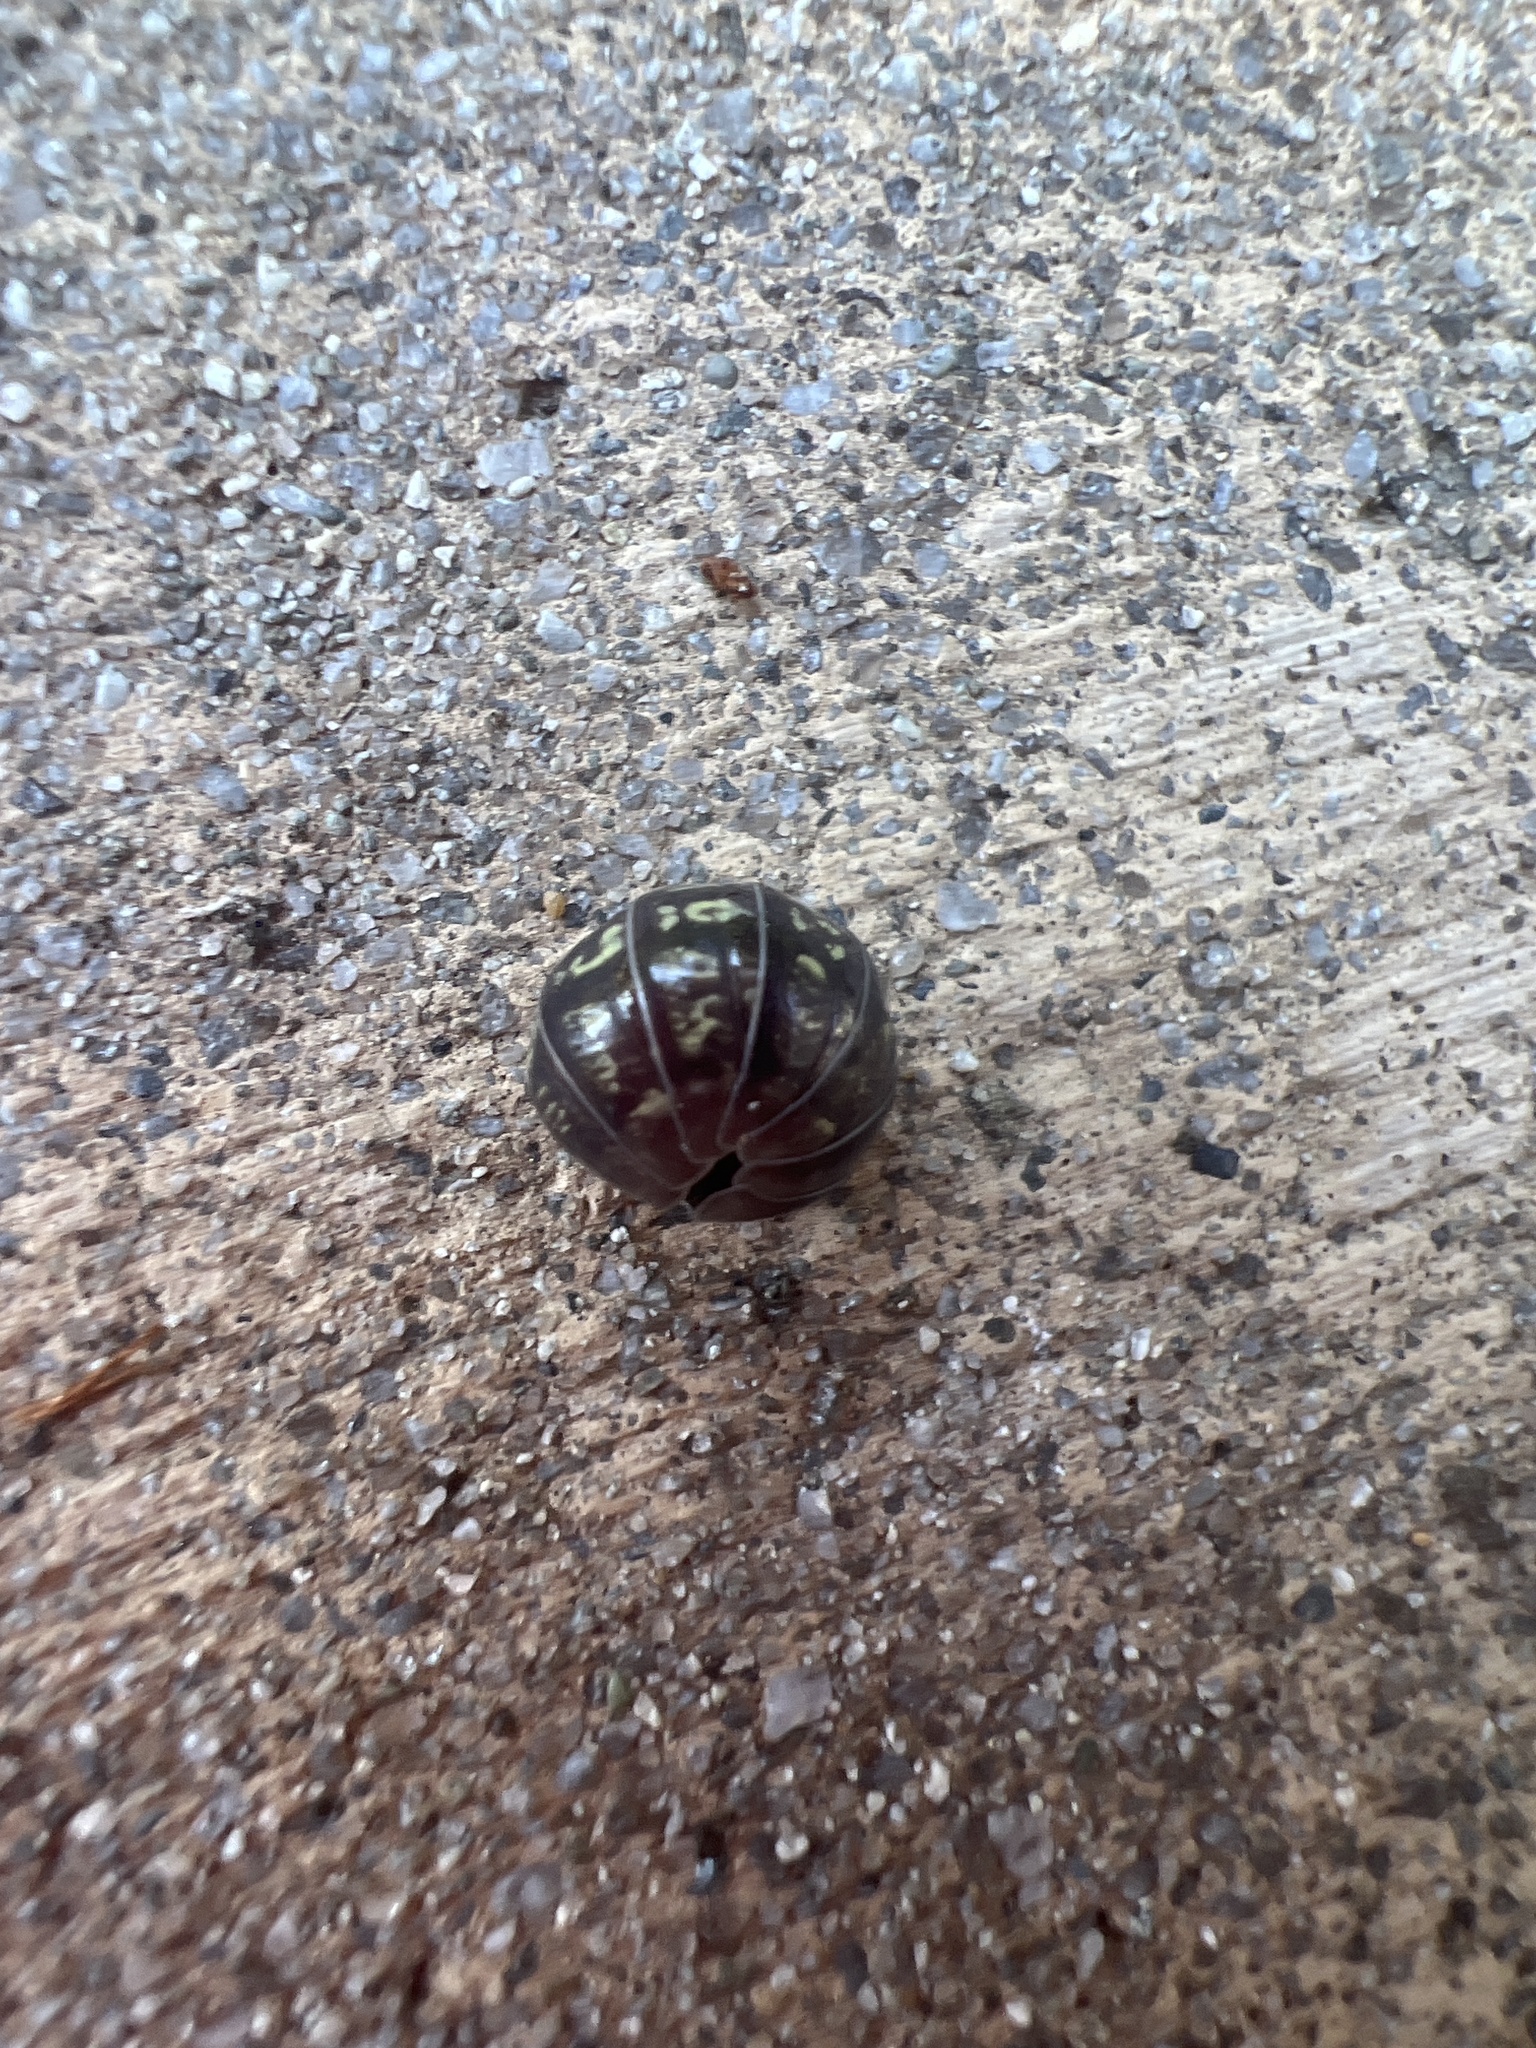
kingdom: Animalia
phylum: Arthropoda
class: Malacostraca
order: Isopoda
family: Armadillidiidae
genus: Armadillidium
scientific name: Armadillidium vulgare
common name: Common pill woodlouse
